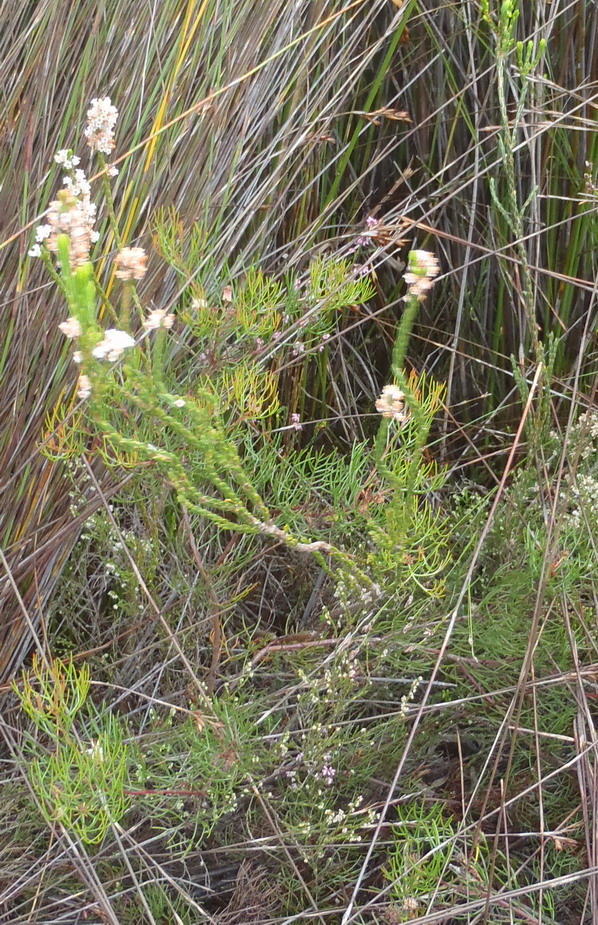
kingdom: Plantae
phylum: Tracheophyta
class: Magnoliopsida
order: Ericales
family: Ericaceae
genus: Erica
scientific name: Erica articularis
